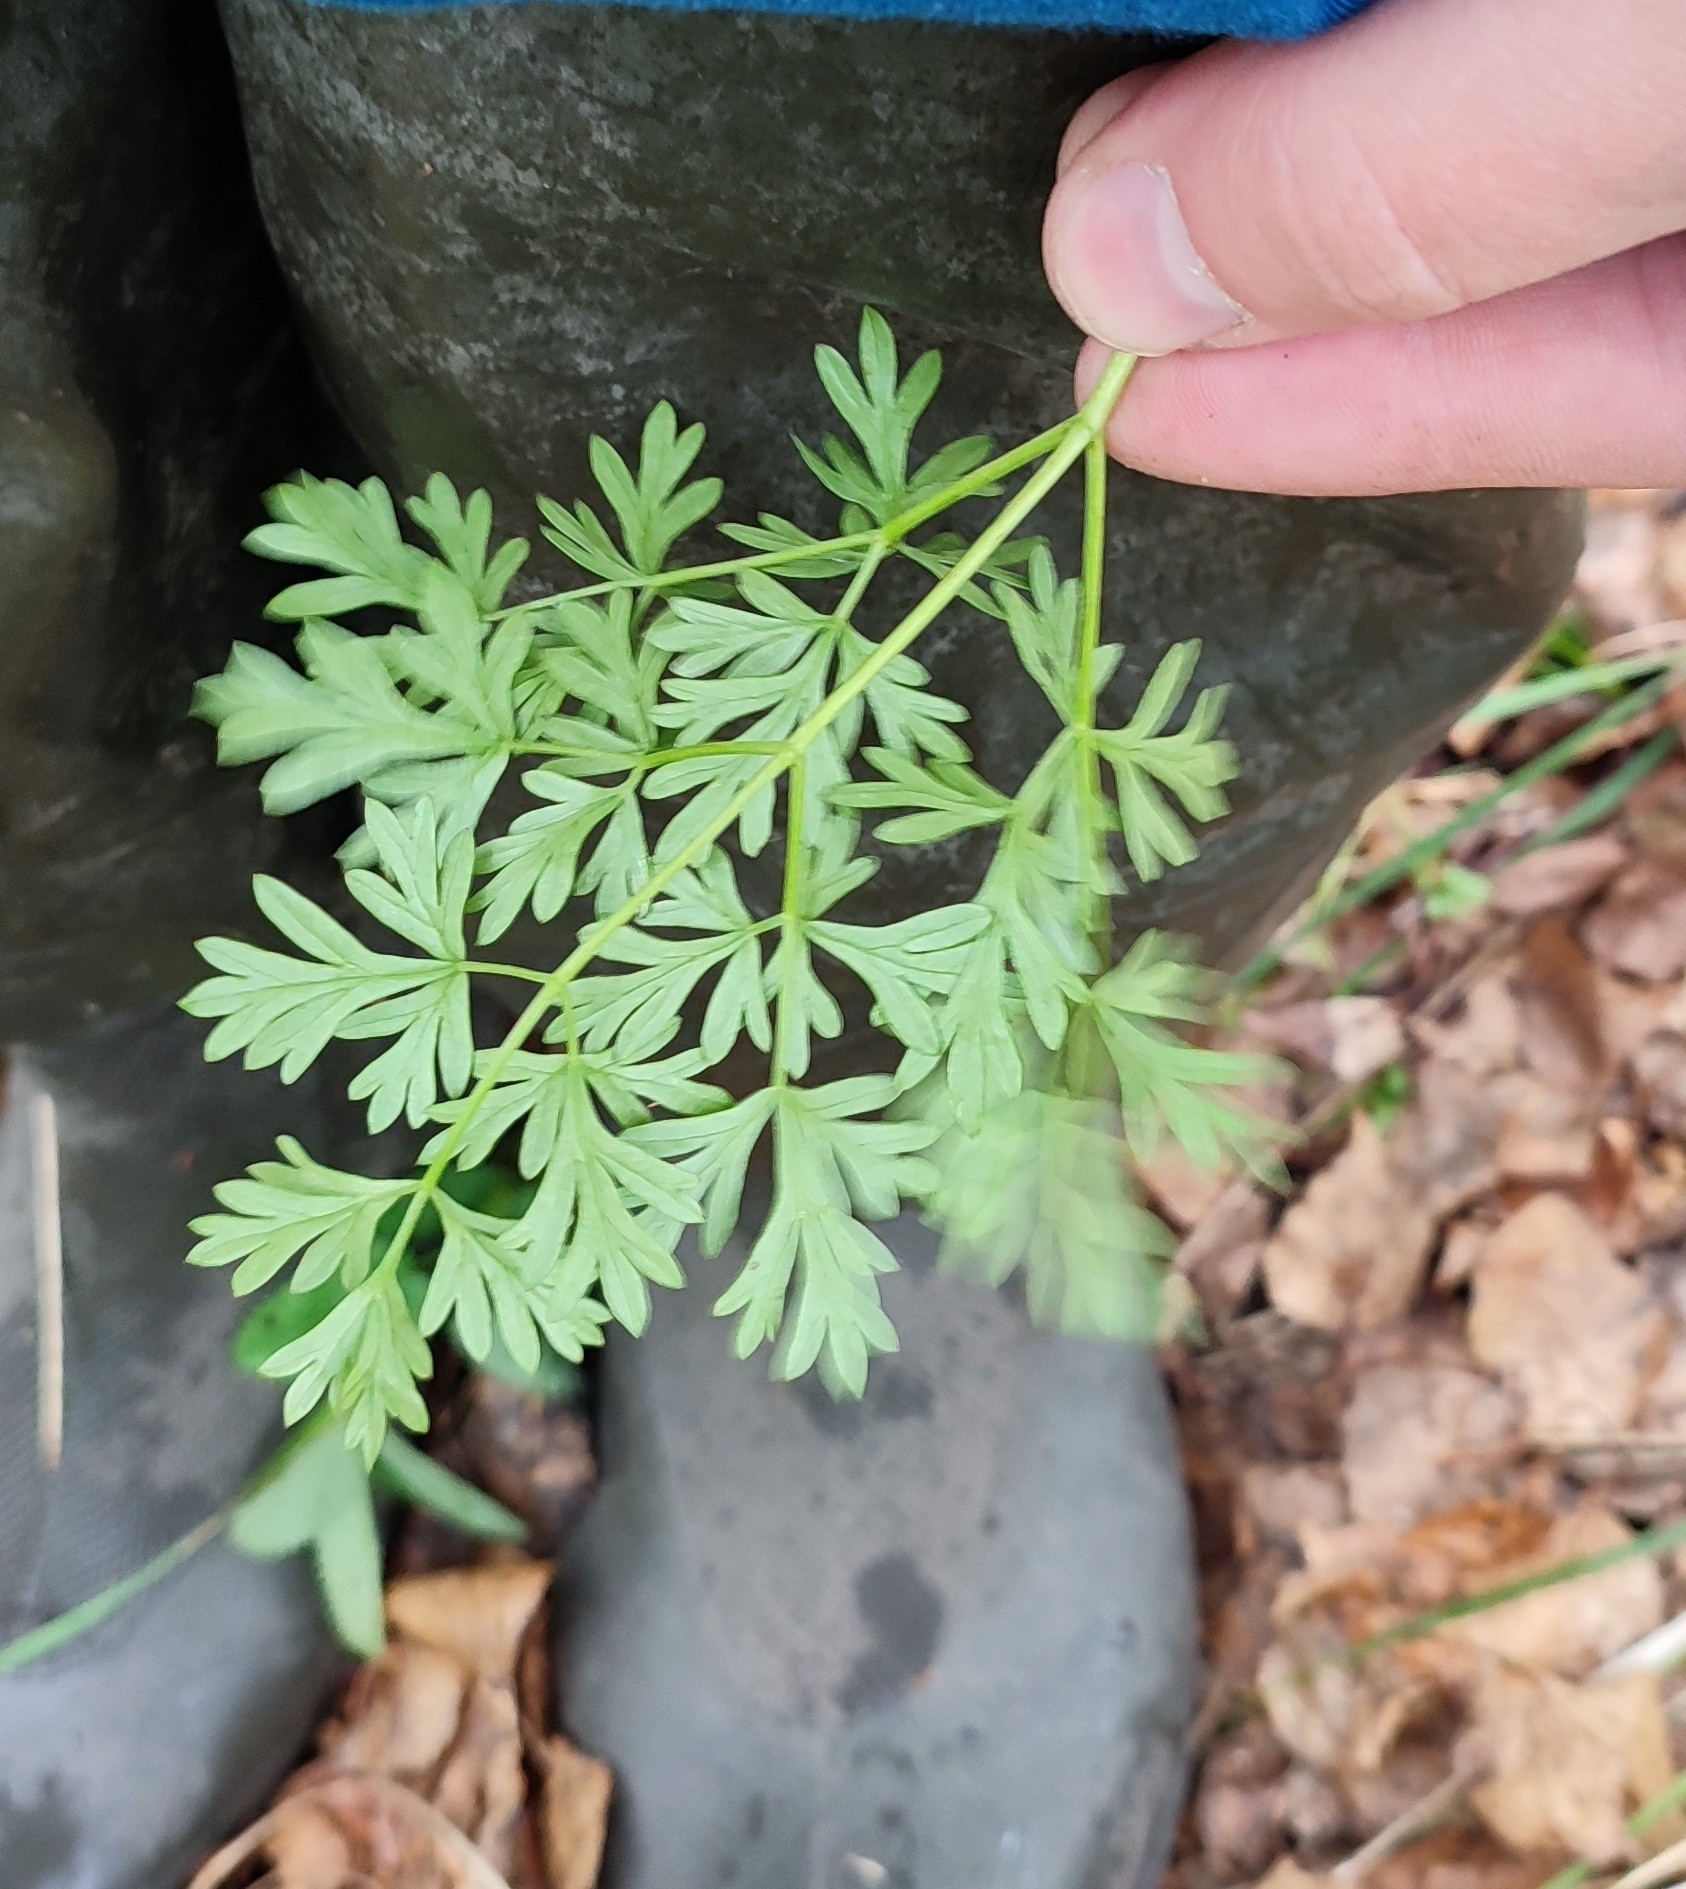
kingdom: Plantae
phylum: Tracheophyta
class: Magnoliopsida
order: Apiales
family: Apiaceae
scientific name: Apiaceae
